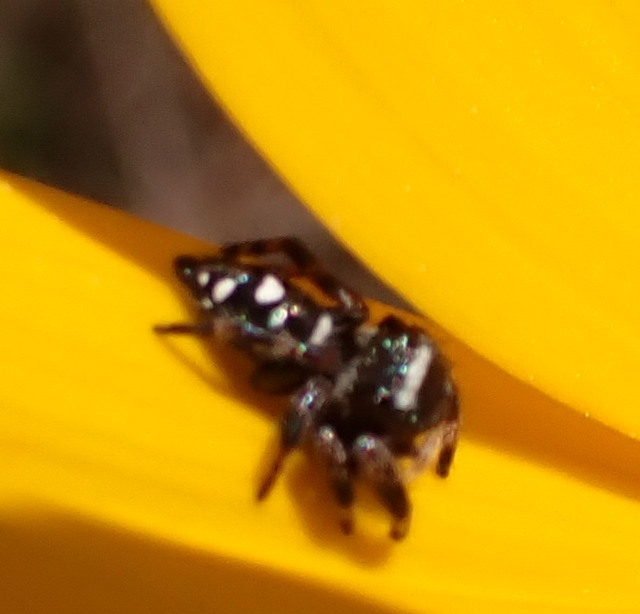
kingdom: Animalia
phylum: Arthropoda
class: Arachnida
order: Araneae
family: Salticidae
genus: Phidippus
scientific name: Phidippus regius
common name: Regal jumper
